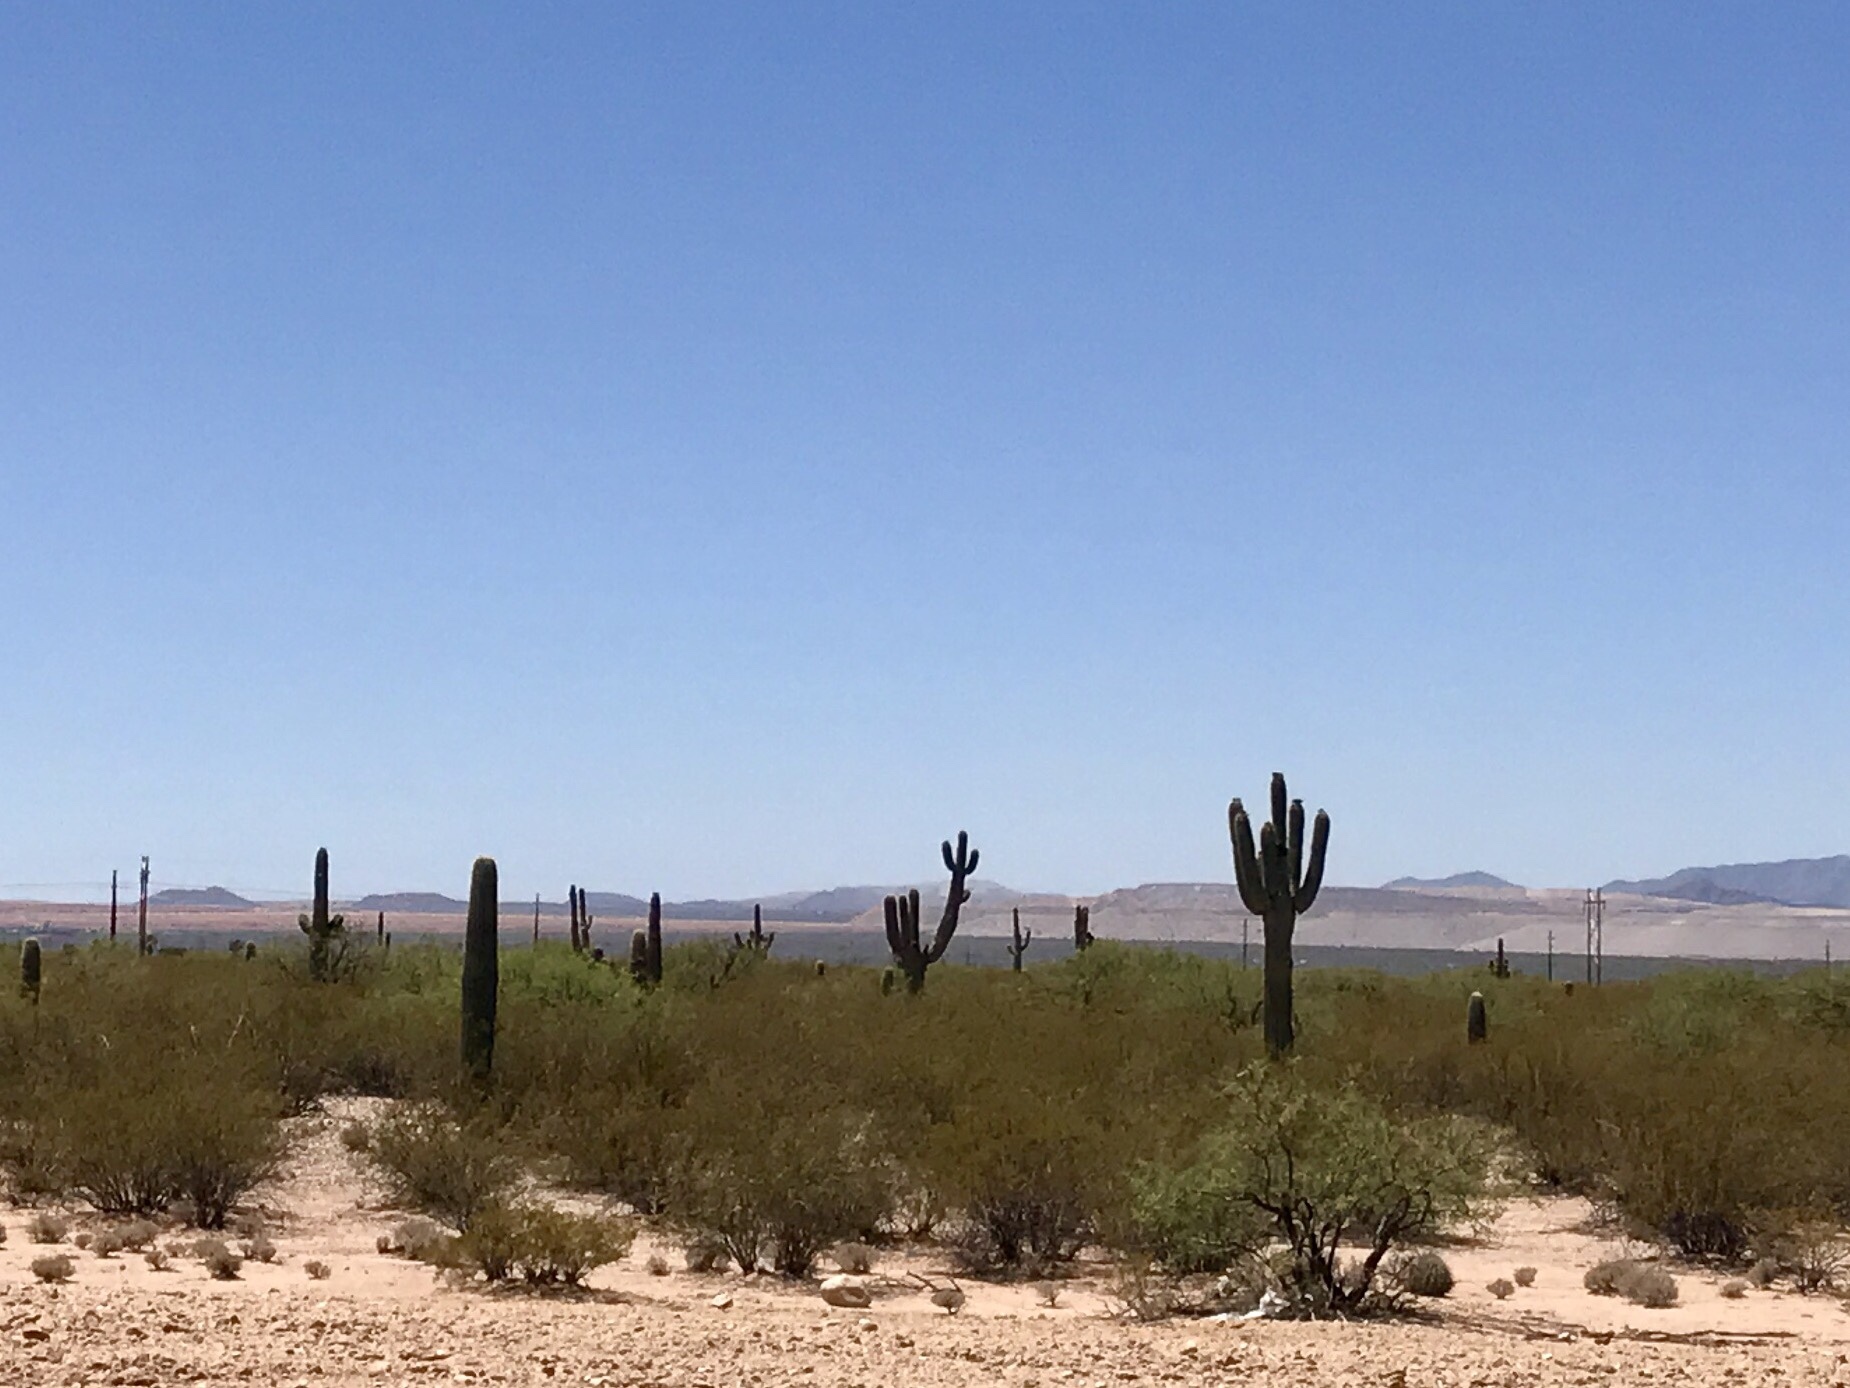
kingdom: Plantae
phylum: Tracheophyta
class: Magnoliopsida
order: Caryophyllales
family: Cactaceae
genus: Carnegiea
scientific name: Carnegiea gigantea
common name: Saguaro
